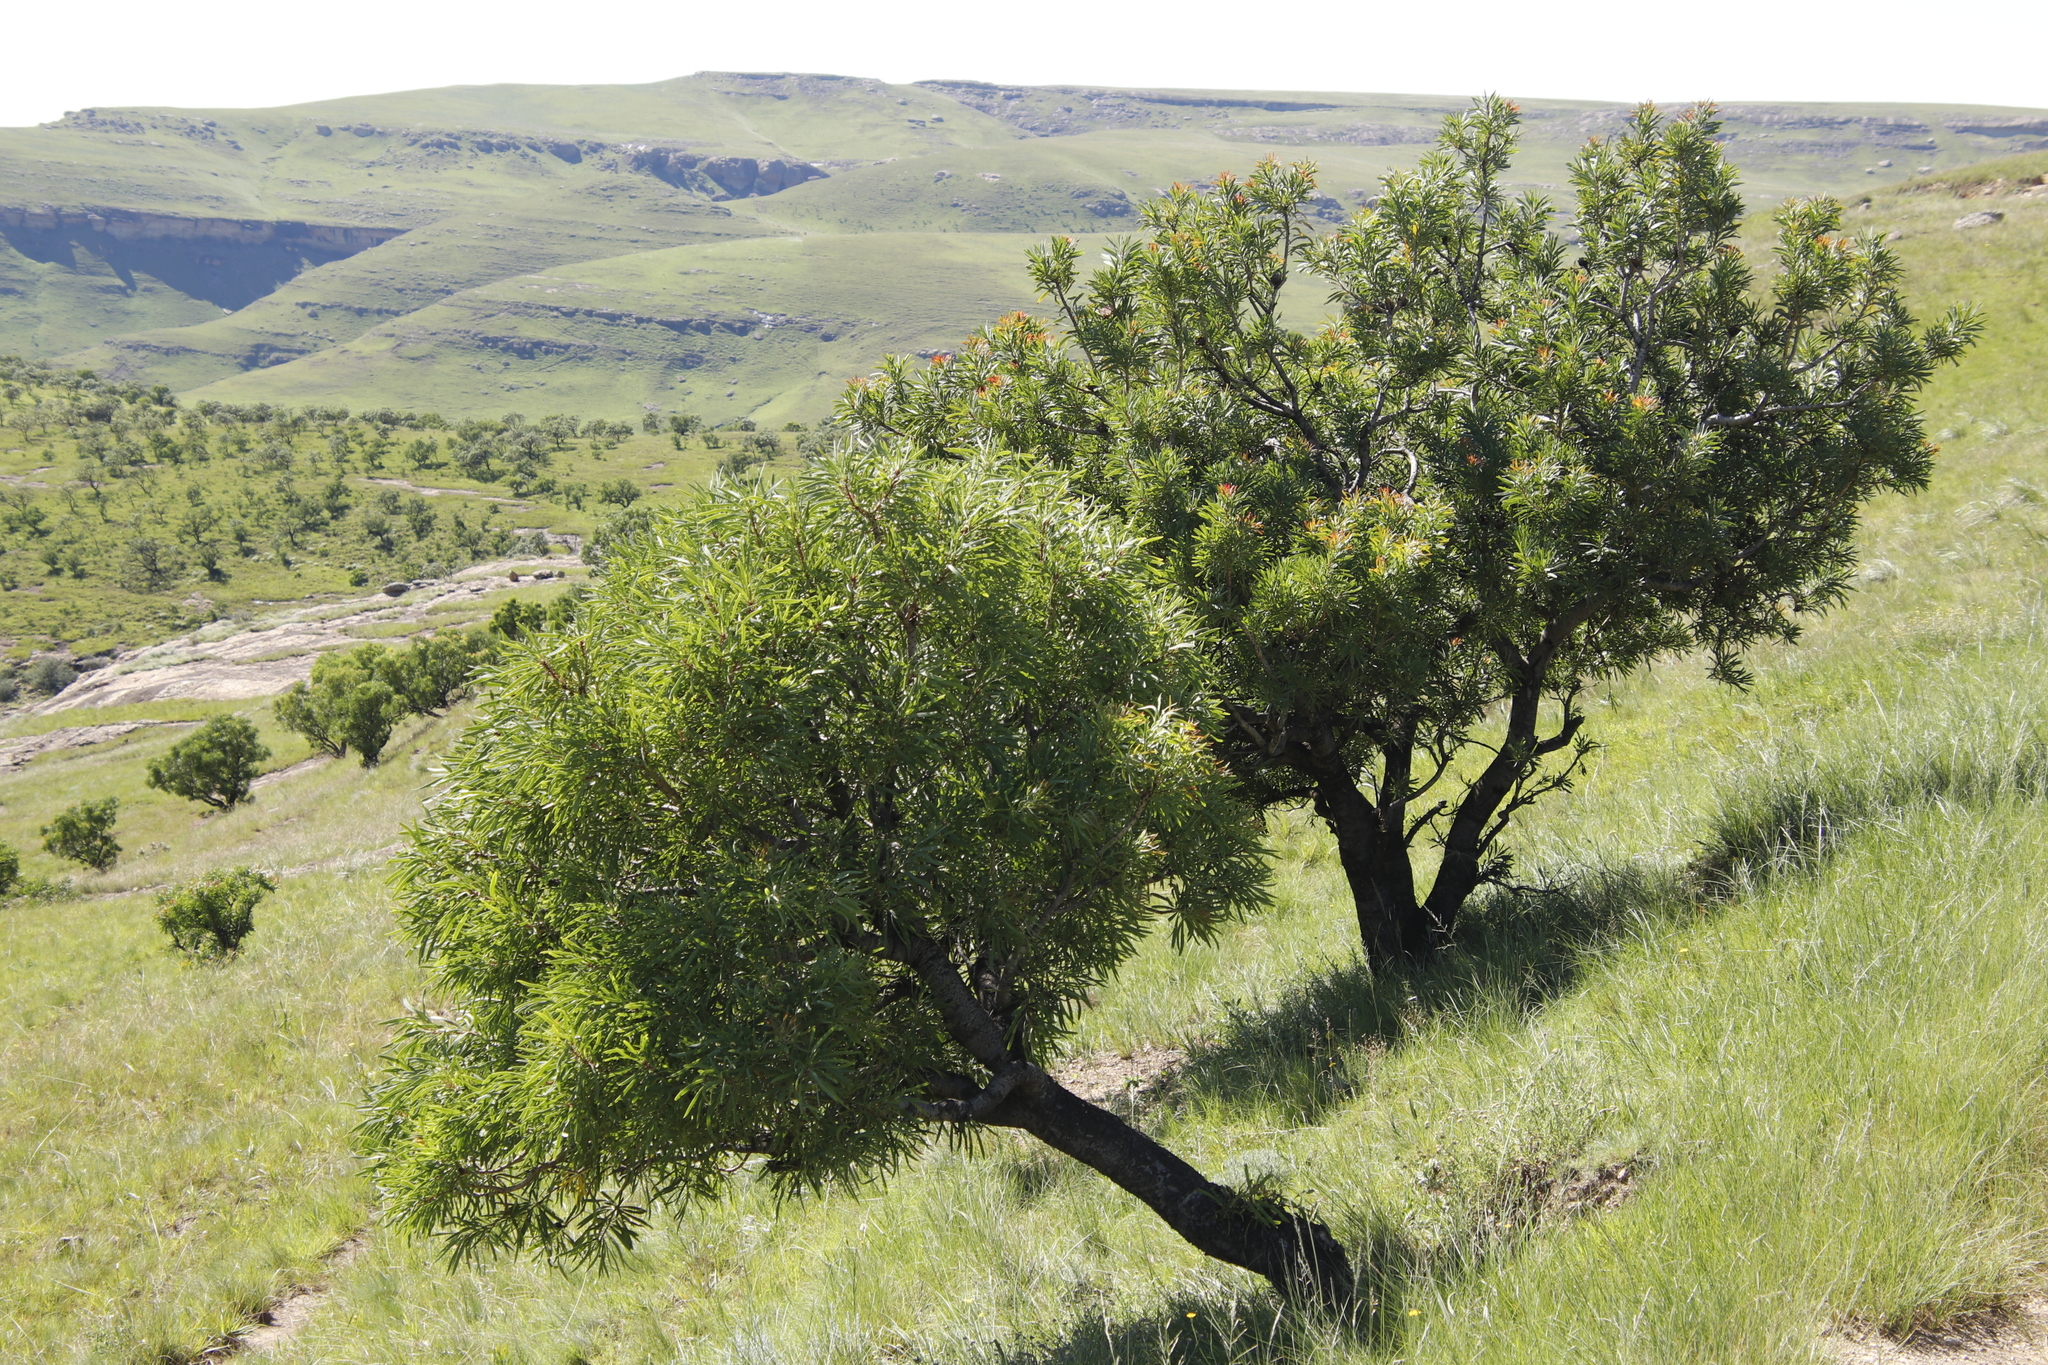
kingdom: Plantae
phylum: Tracheophyta
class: Magnoliopsida
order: Proteales
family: Proteaceae
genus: Protea
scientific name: Protea caffra
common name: Common sugarbush
